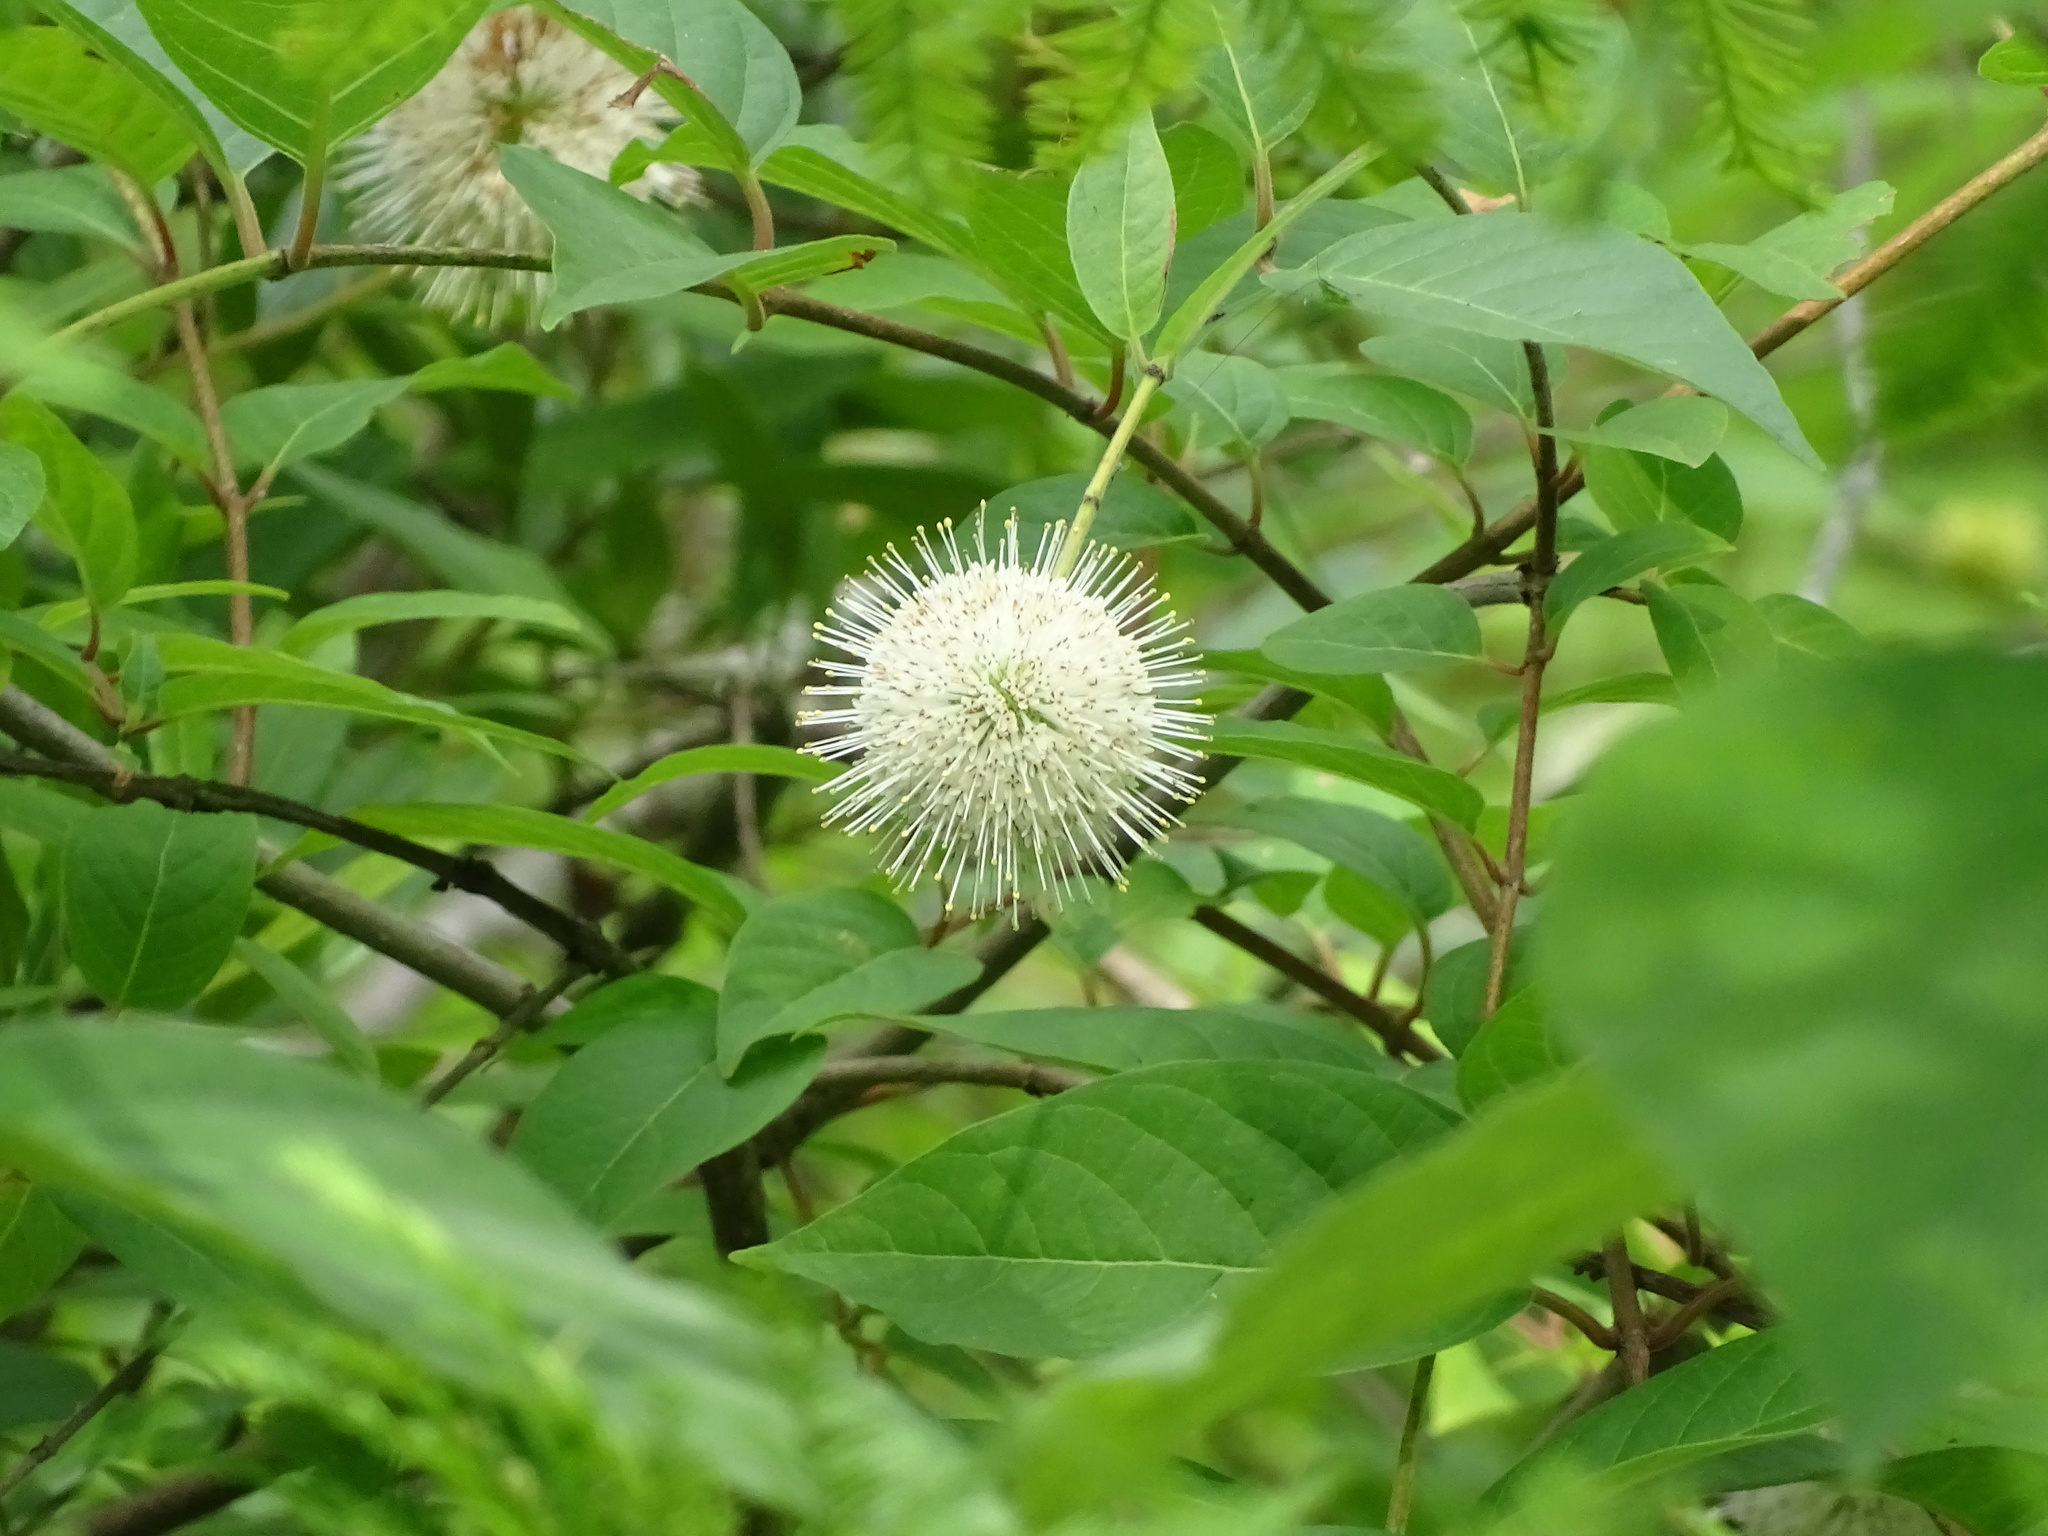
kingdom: Plantae
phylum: Tracheophyta
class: Magnoliopsida
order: Gentianales
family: Rubiaceae
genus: Cephalanthus
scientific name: Cephalanthus occidentalis
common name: Button-willow
